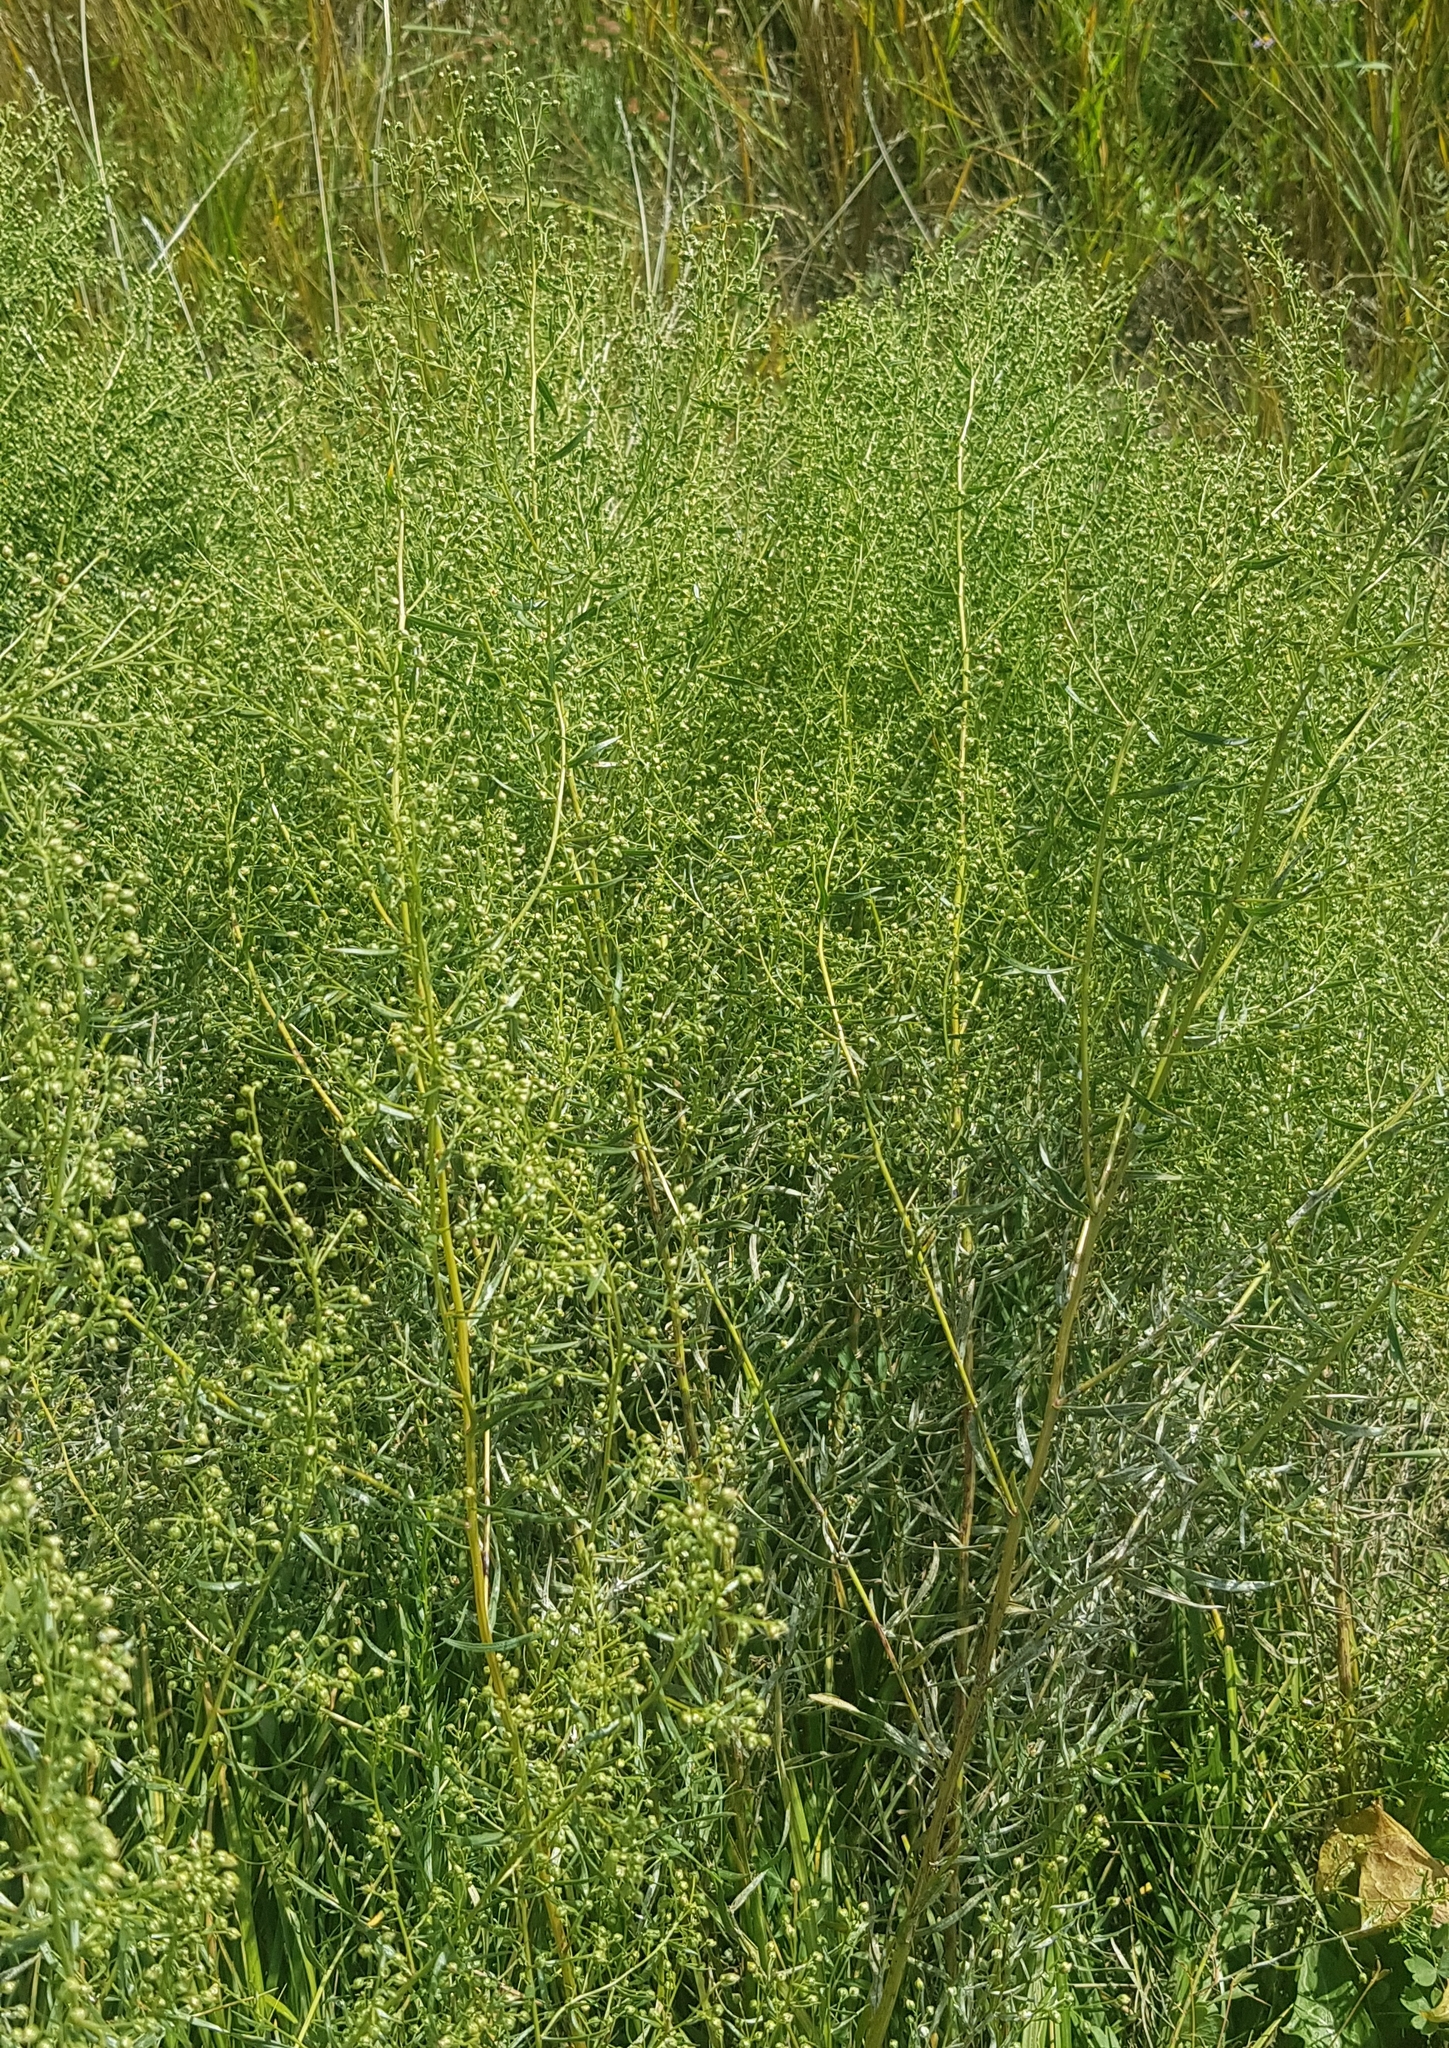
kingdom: Plantae
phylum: Tracheophyta
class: Magnoliopsida
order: Asterales
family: Asteraceae
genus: Artemisia
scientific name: Artemisia dracunculus
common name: Tarragon
